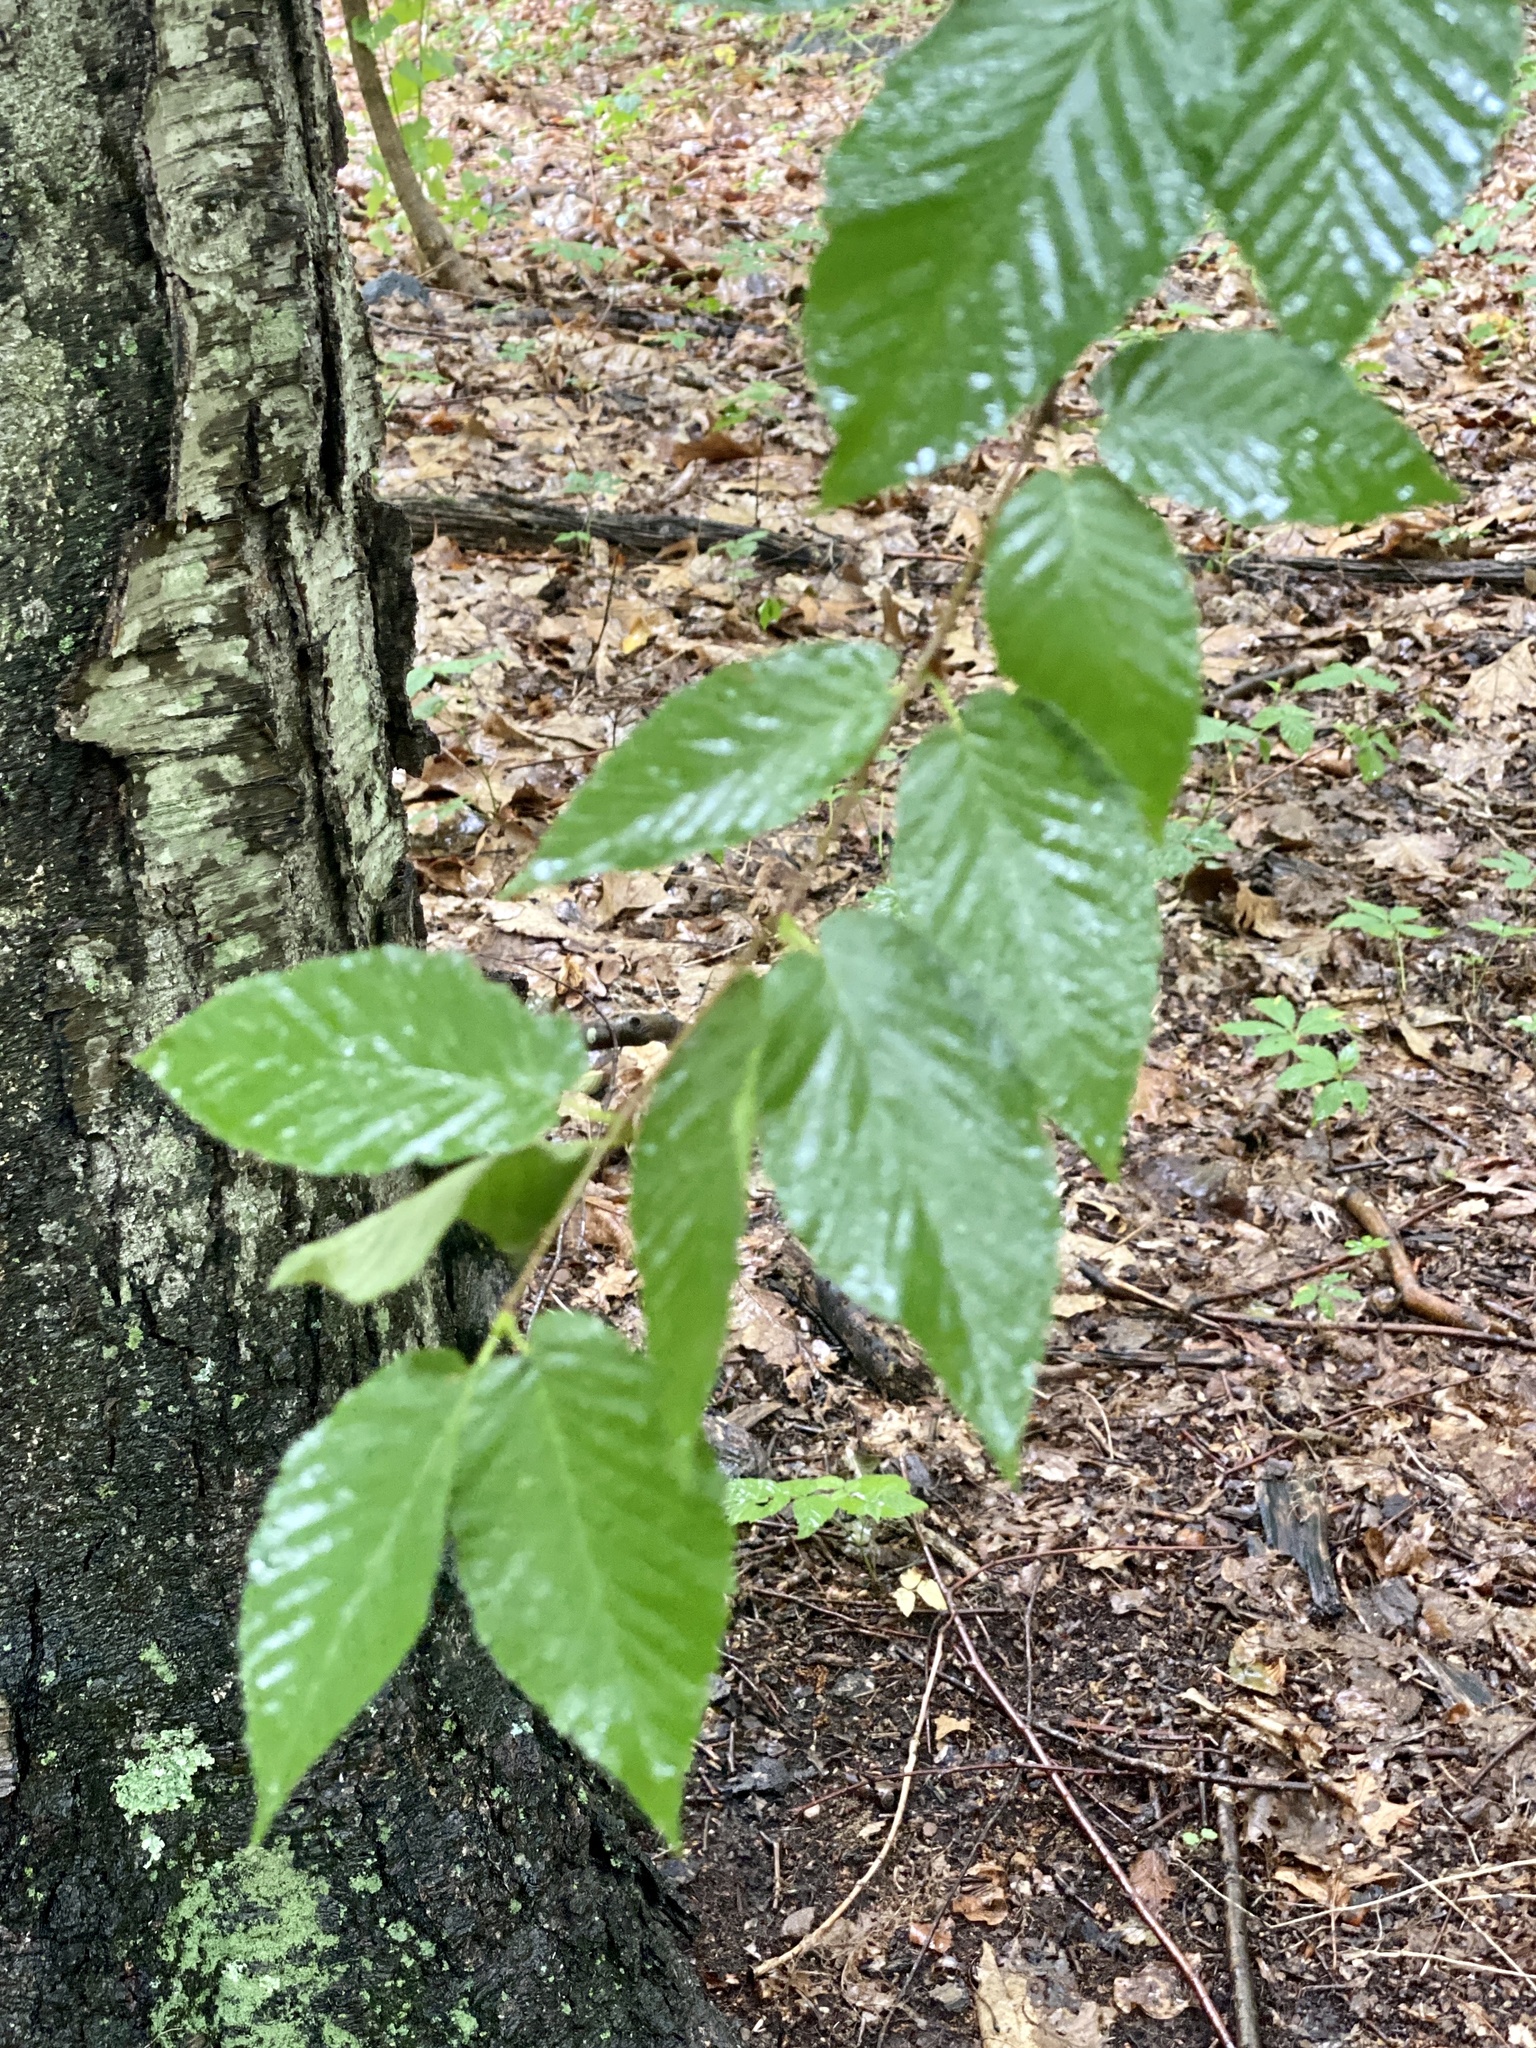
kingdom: Plantae
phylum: Tracheophyta
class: Magnoliopsida
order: Fagales
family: Betulaceae
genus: Betula
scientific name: Betula lenta
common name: Black birch
